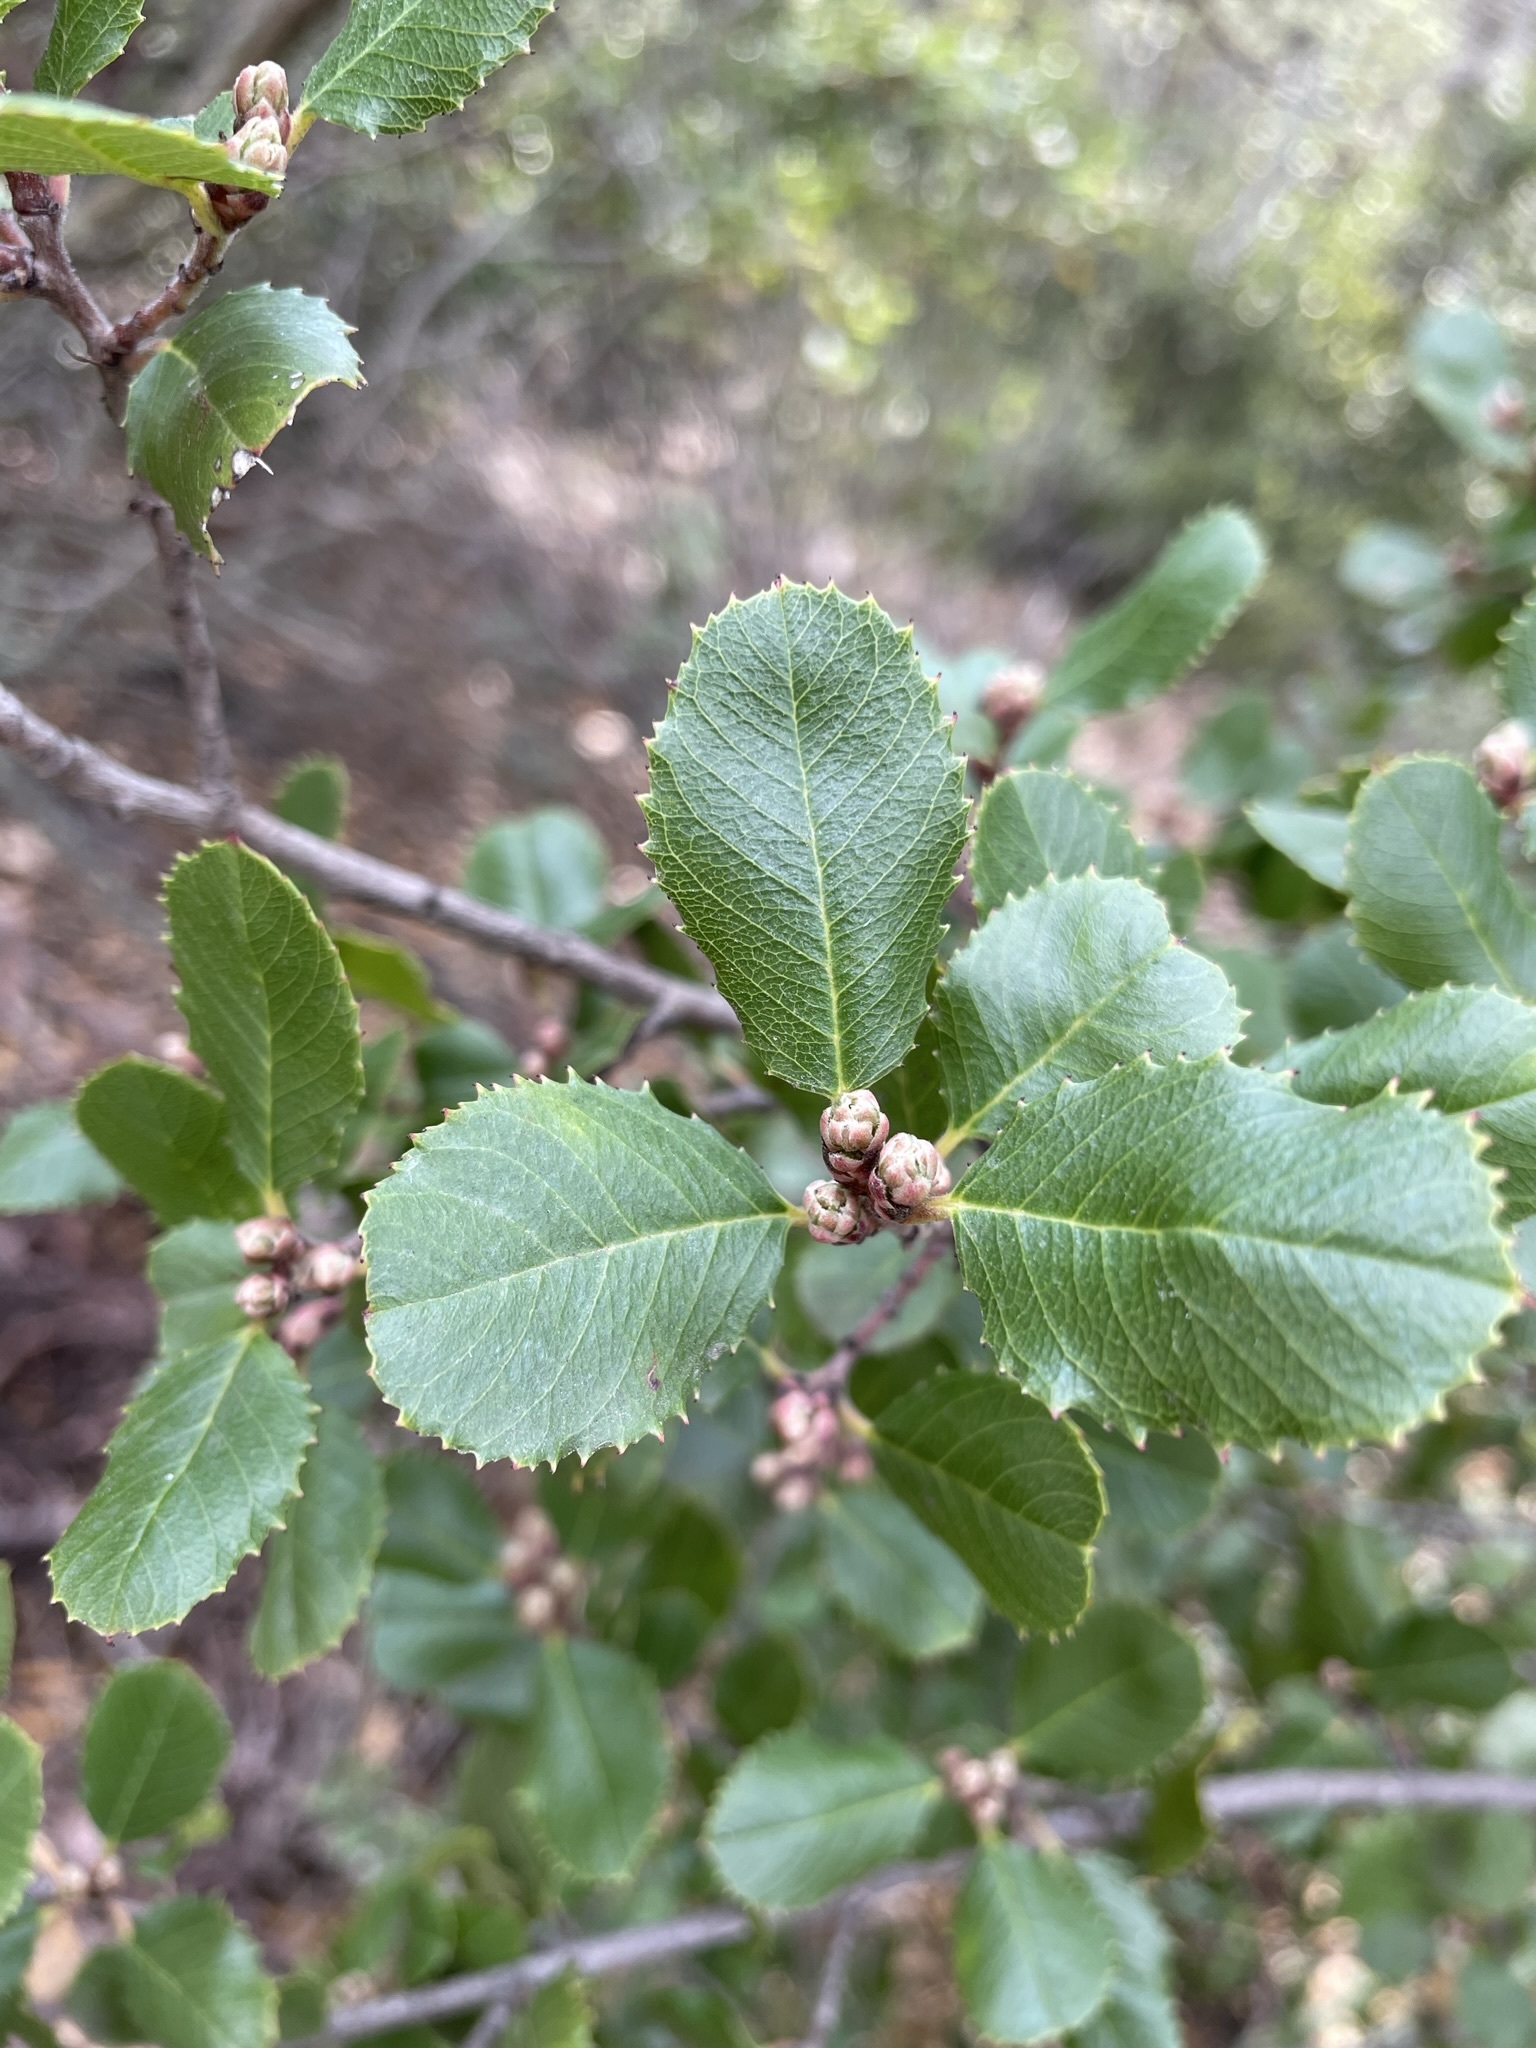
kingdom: Plantae
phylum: Tracheophyta
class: Magnoliopsida
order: Rosales
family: Rhamnaceae
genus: Endotropis
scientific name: Endotropis crocea
